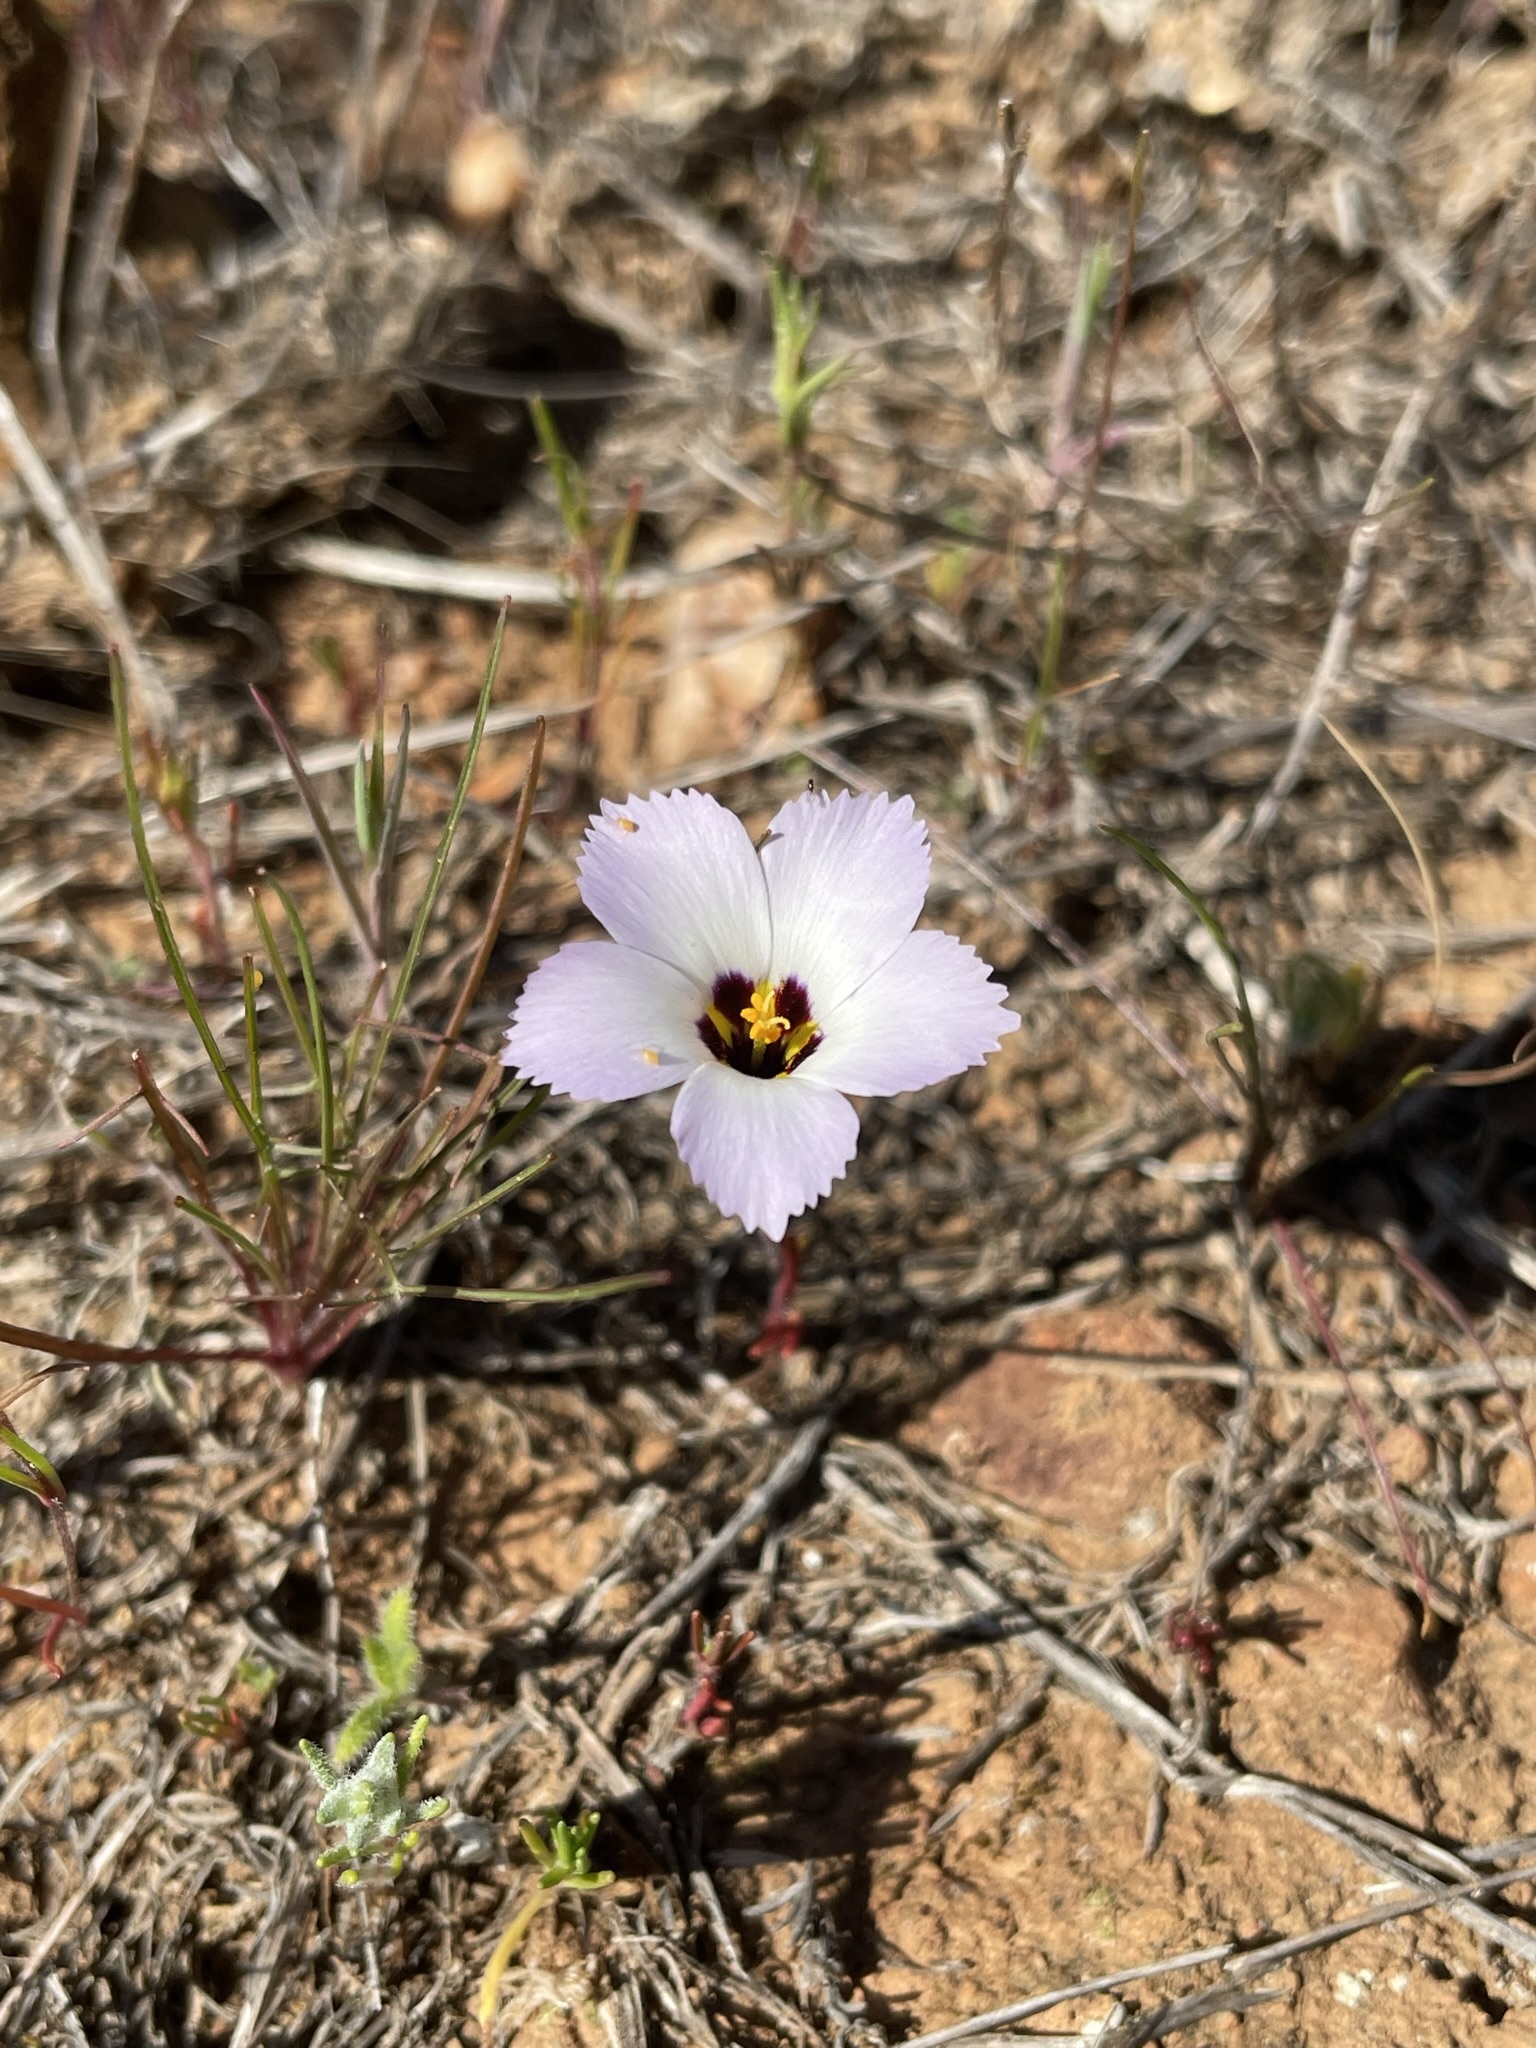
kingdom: Plantae
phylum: Tracheophyta
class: Magnoliopsida
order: Ericales
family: Polemoniaceae
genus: Linanthus
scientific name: Linanthus dianthiflorus
